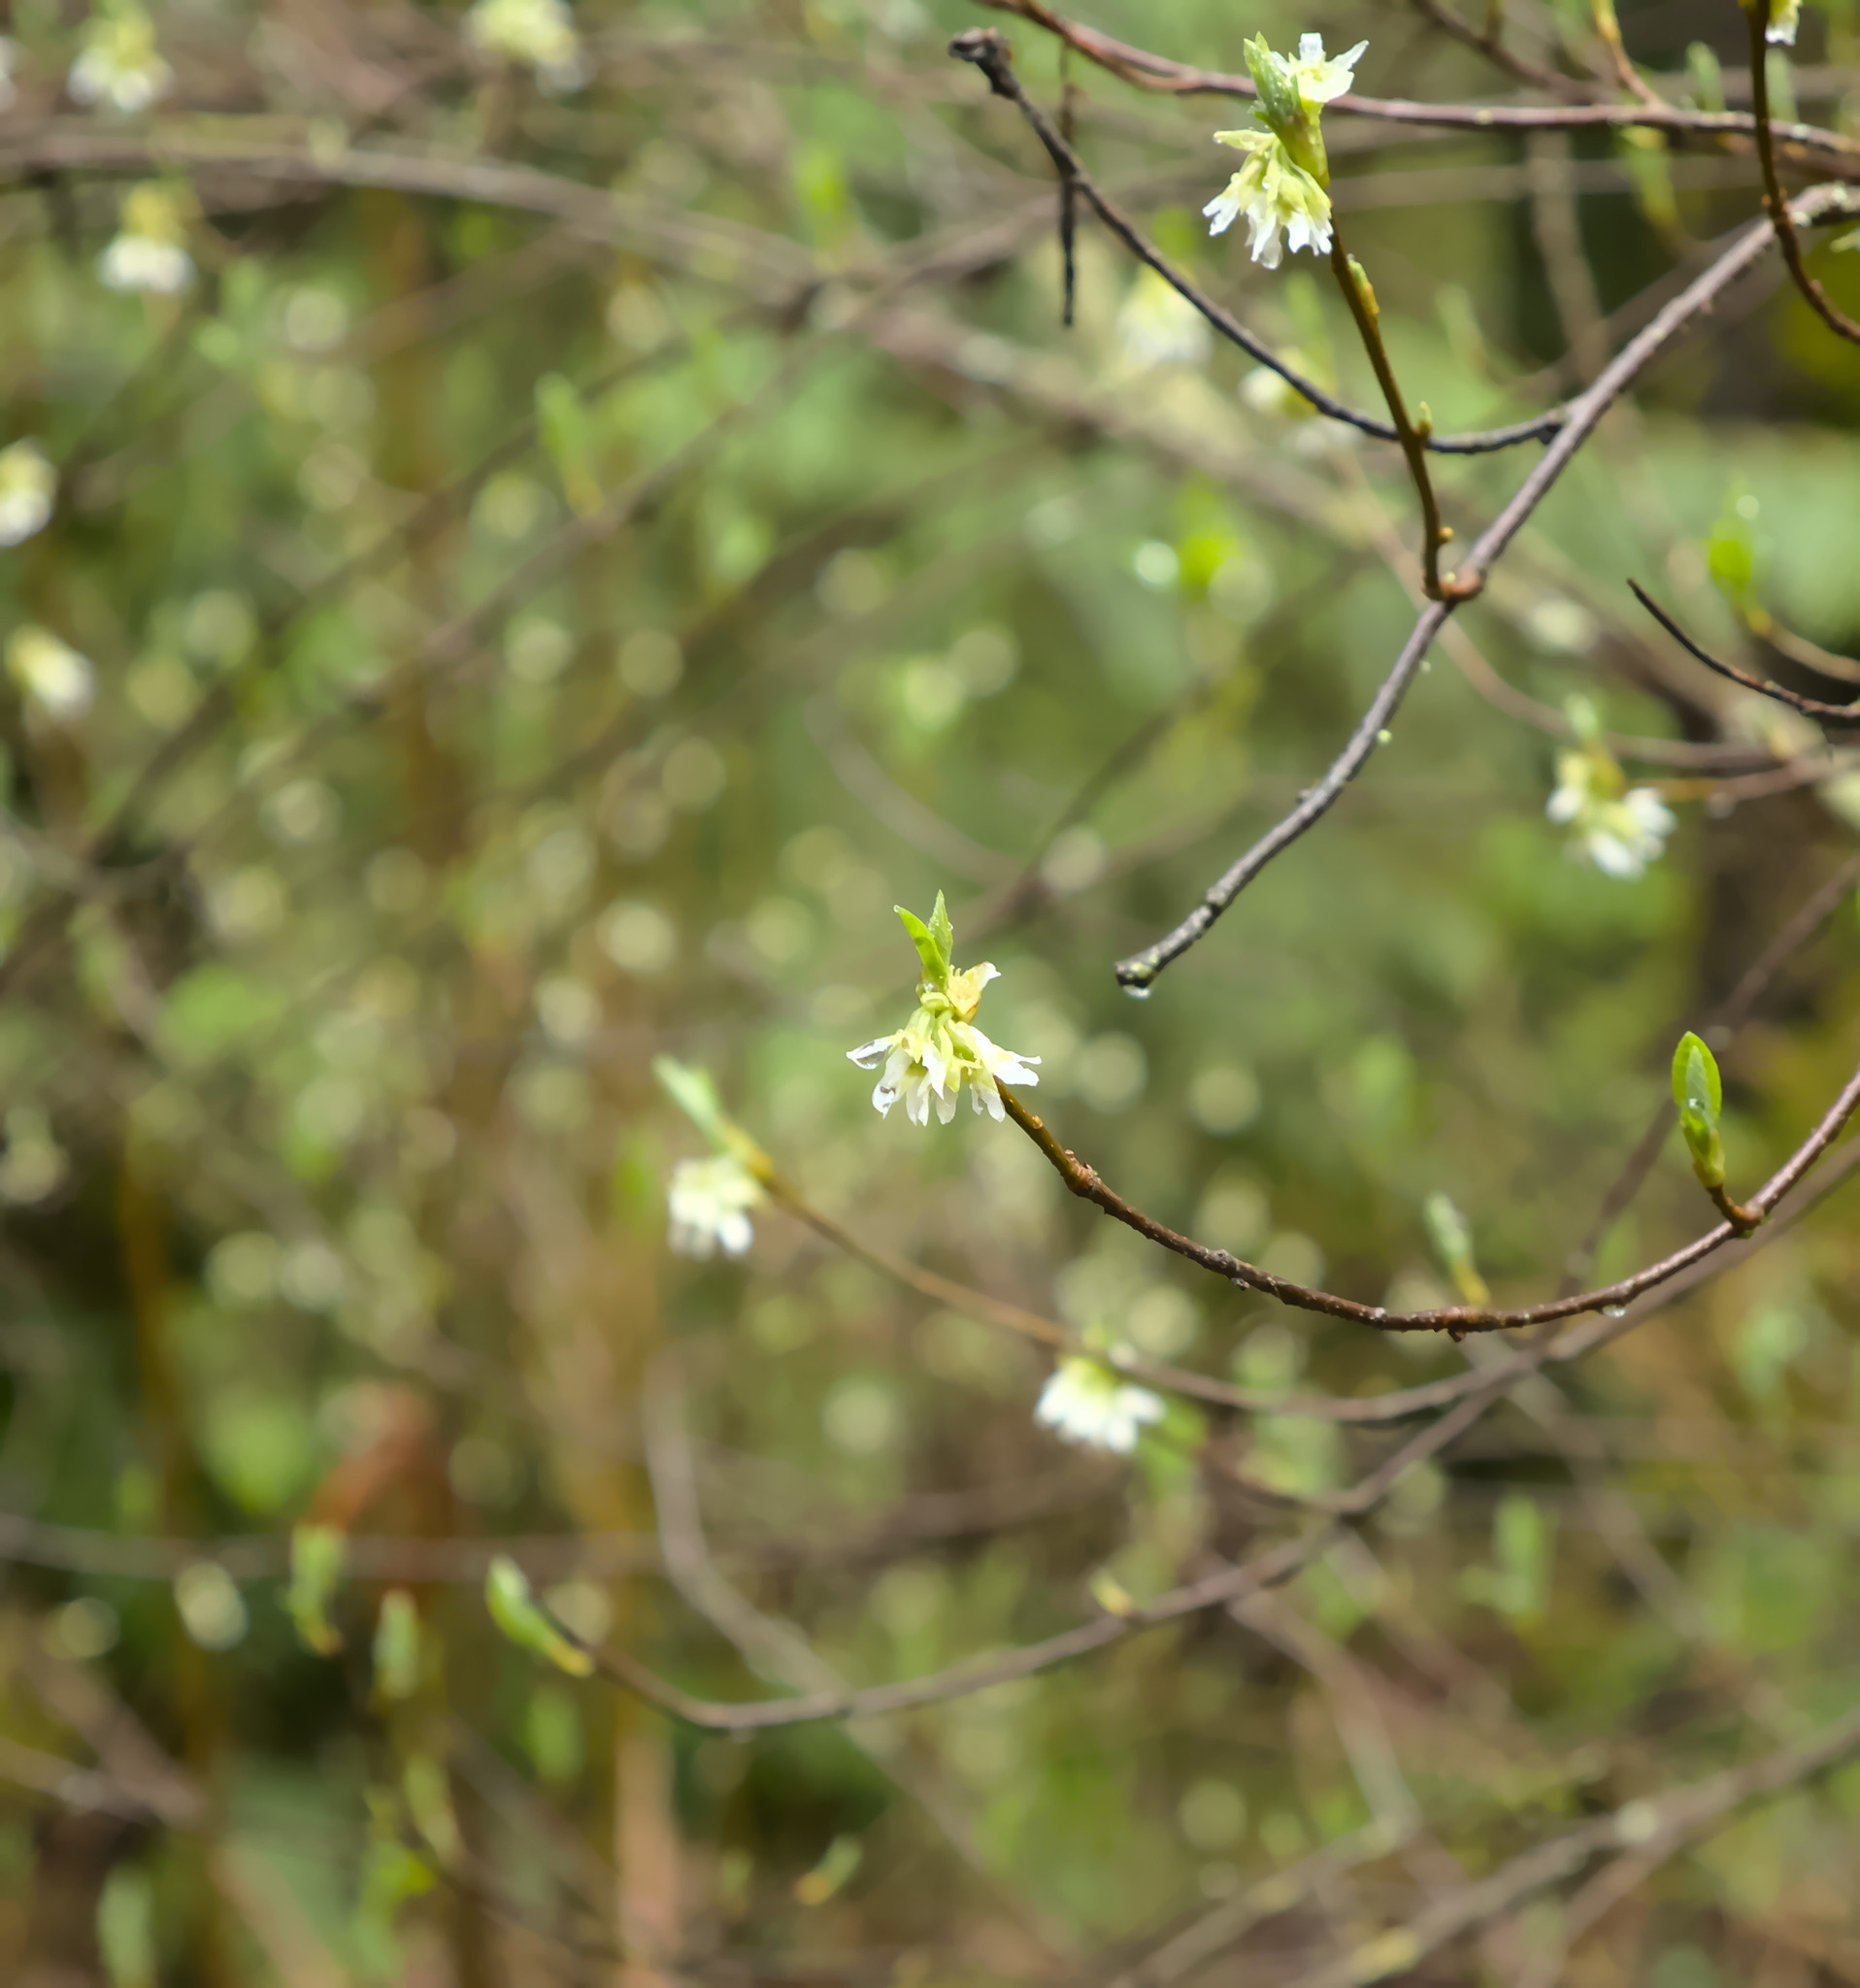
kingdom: Plantae
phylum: Tracheophyta
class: Magnoliopsida
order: Rosales
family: Rosaceae
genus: Oemleria
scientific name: Oemleria cerasiformis
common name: Osoberry
